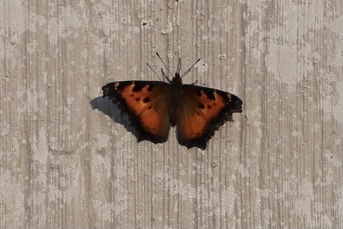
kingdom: Animalia
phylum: Arthropoda
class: Insecta
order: Lepidoptera
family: Nymphalidae
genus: Nymphalis
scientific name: Nymphalis californica
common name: California tortoiseshell
